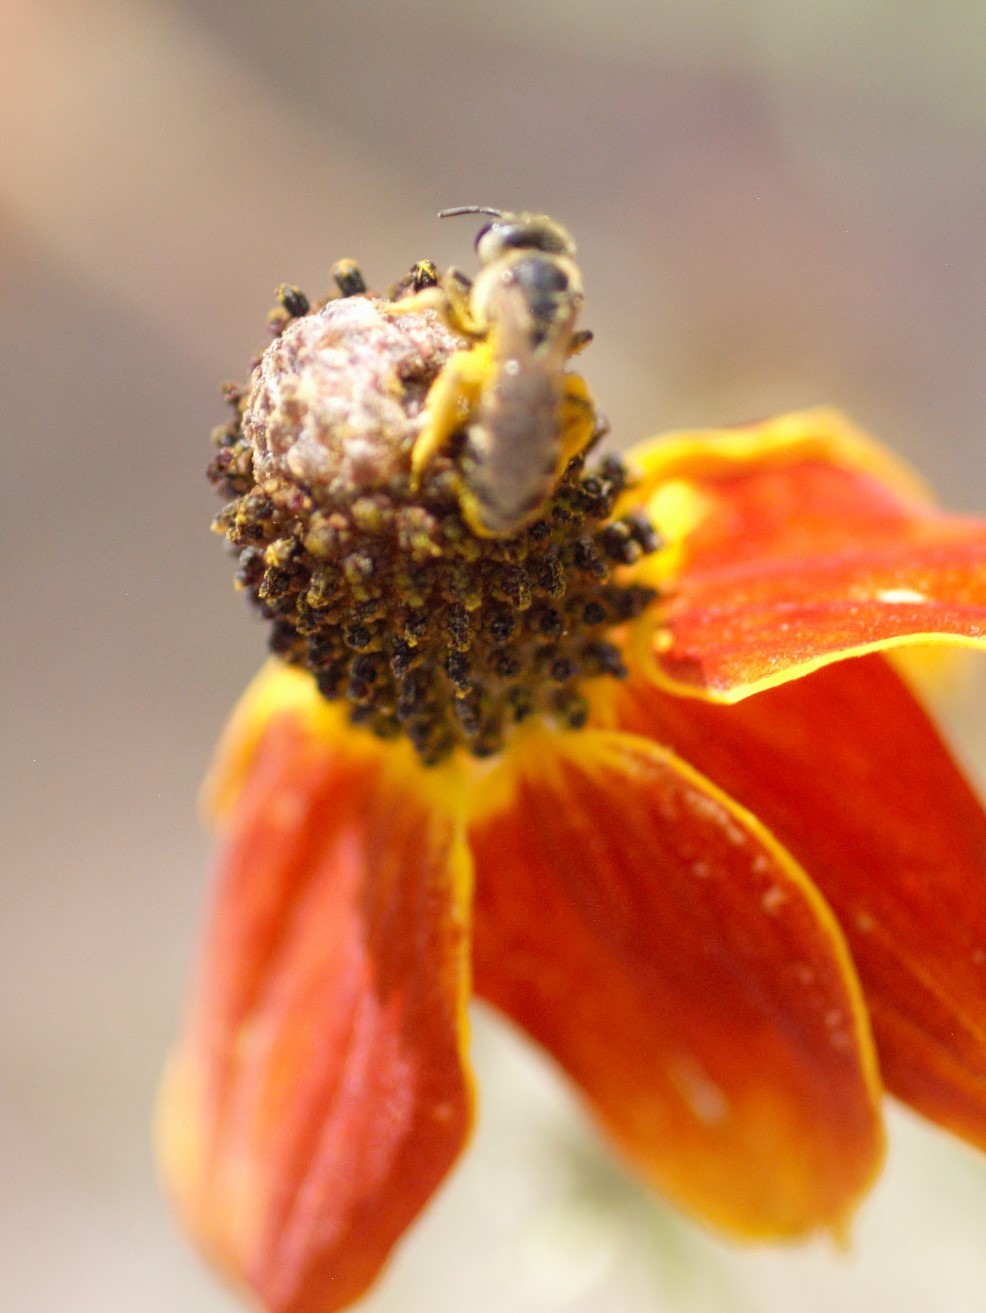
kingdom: Animalia
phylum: Arthropoda
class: Insecta
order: Hymenoptera
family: Halictidae
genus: Halictus
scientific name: Halictus ligatus
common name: Ligated furrow bee
